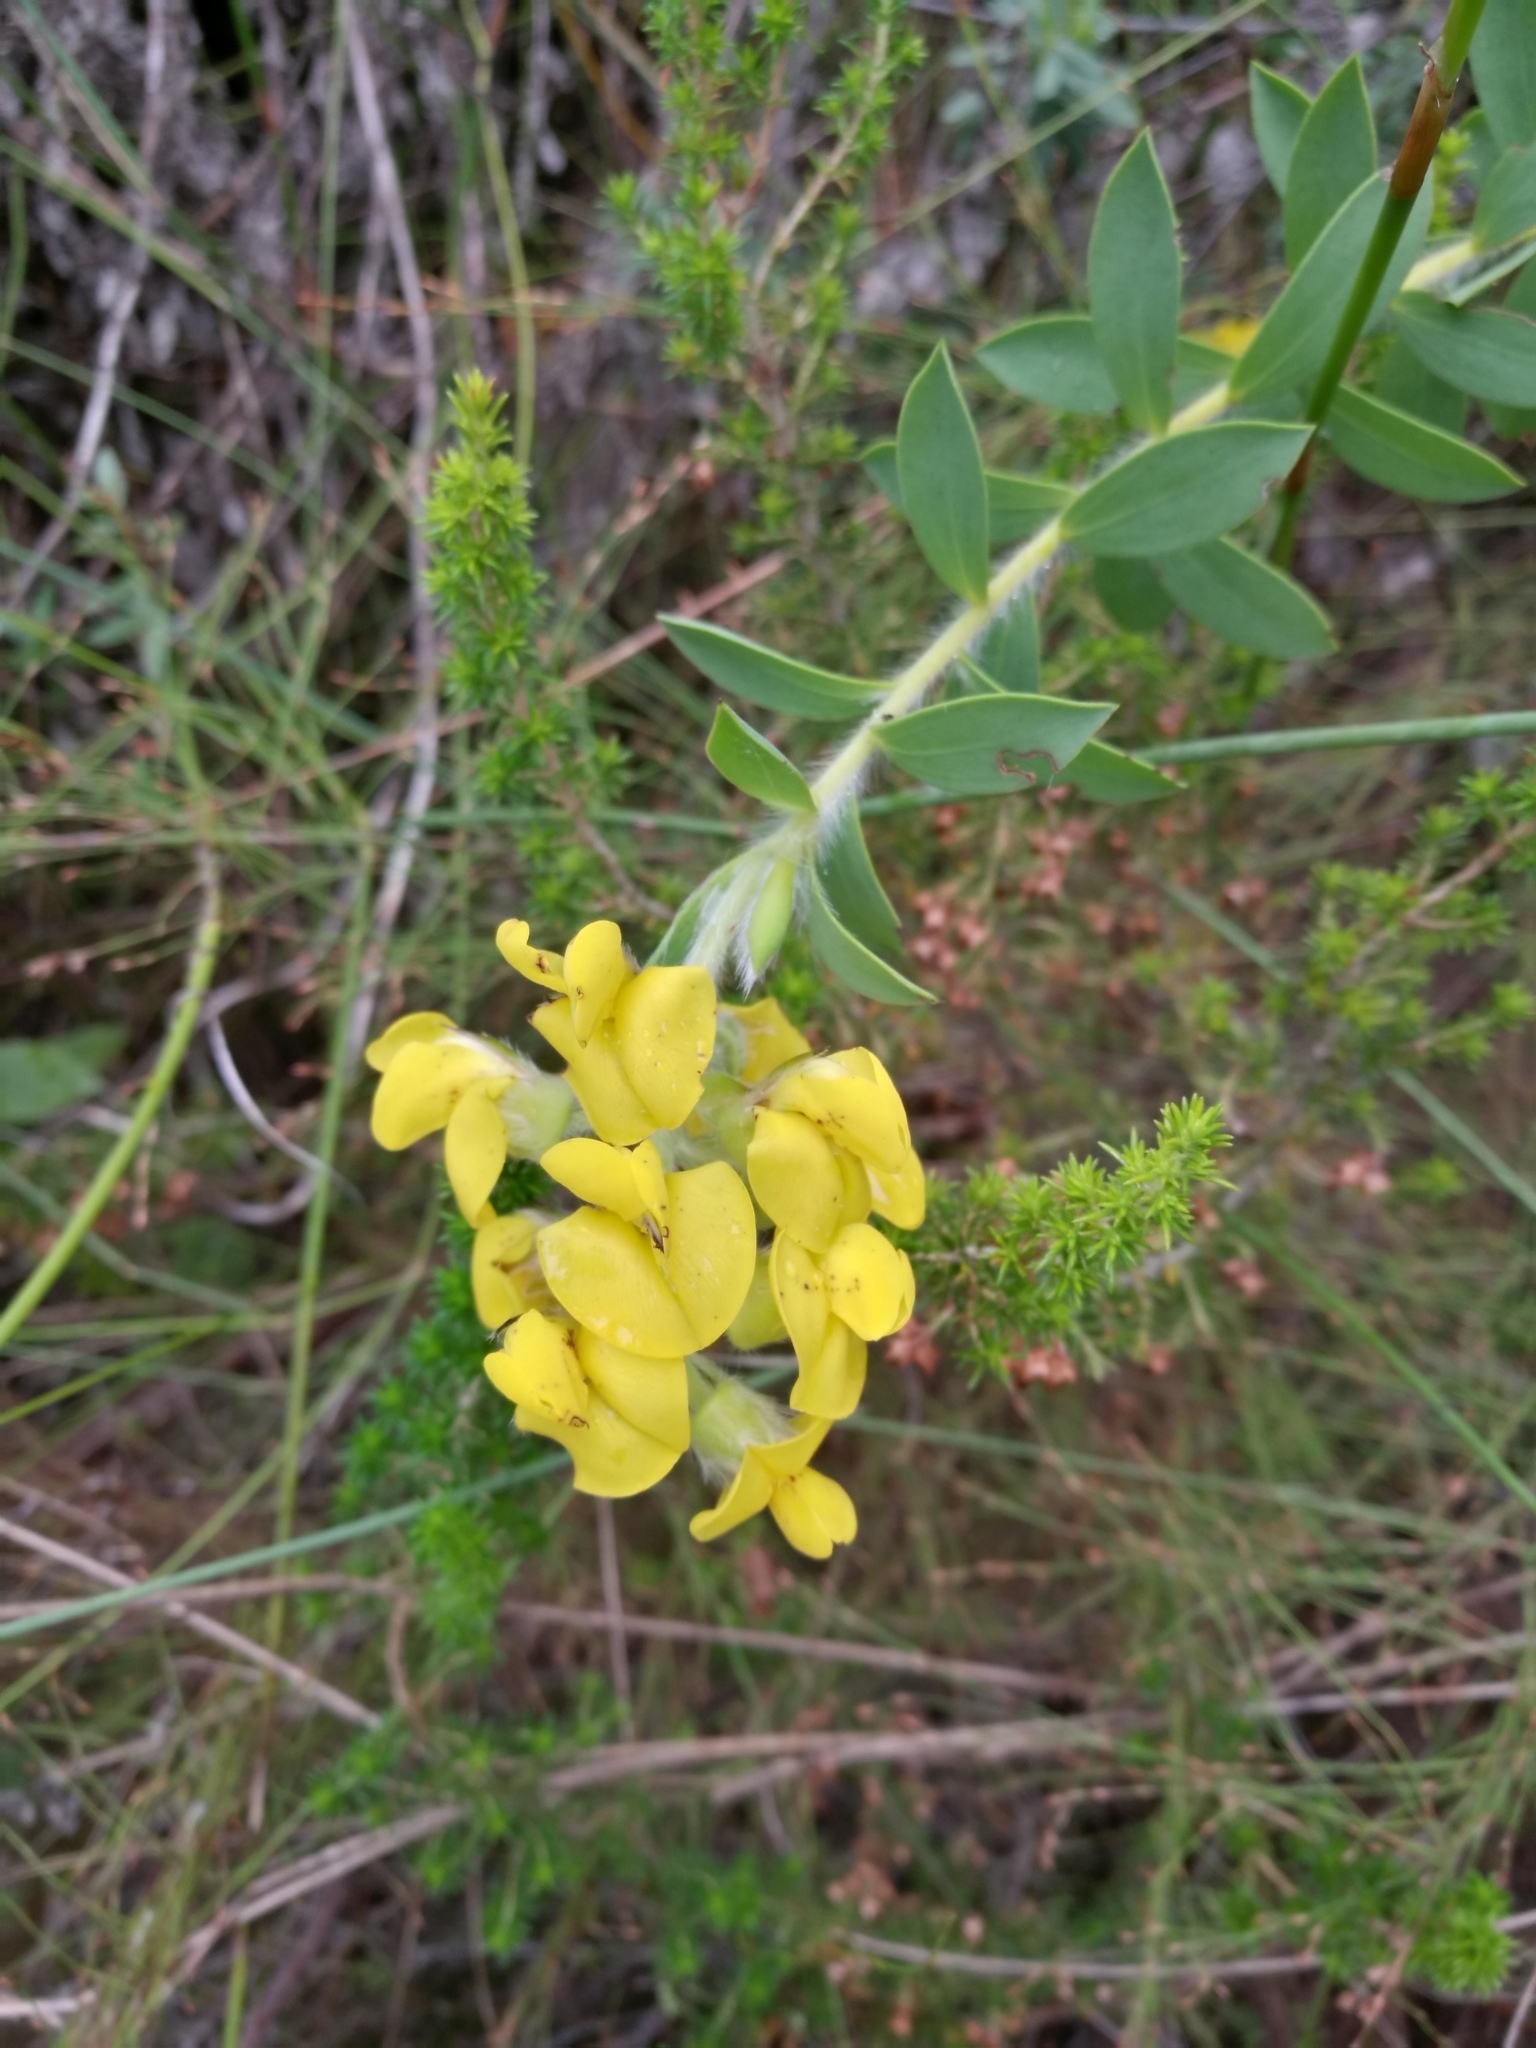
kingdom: Plantae
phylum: Tracheophyta
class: Magnoliopsida
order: Fabales
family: Fabaceae
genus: Liparia
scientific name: Liparia hirsuta
